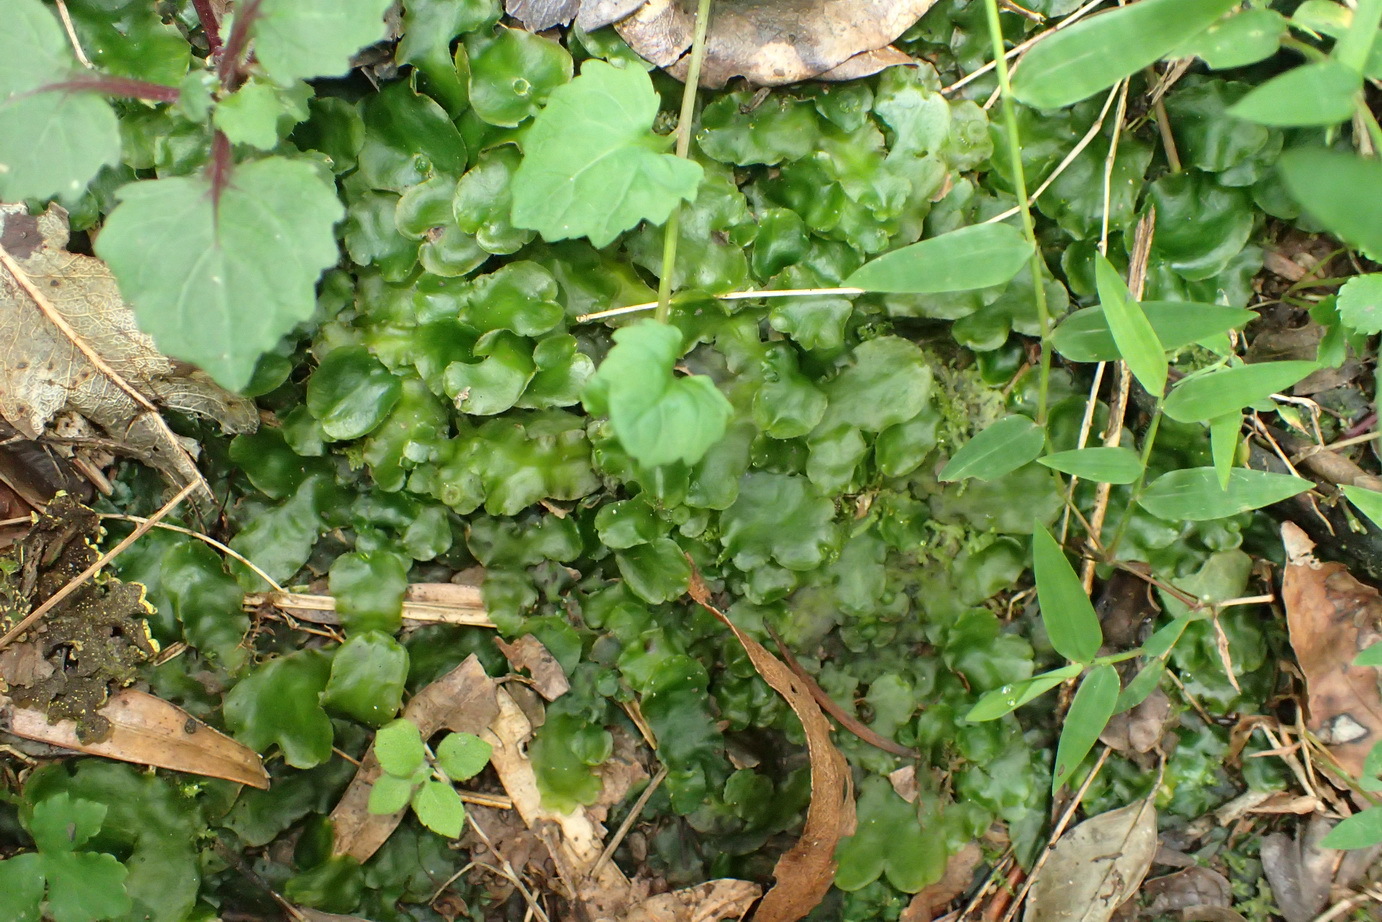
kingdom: Plantae
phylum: Marchantiophyta
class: Marchantiopsida
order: Marchantiales
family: Dumortieraceae
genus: Dumortiera
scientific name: Dumortiera hirsuta
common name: Dumortier's liverwort
